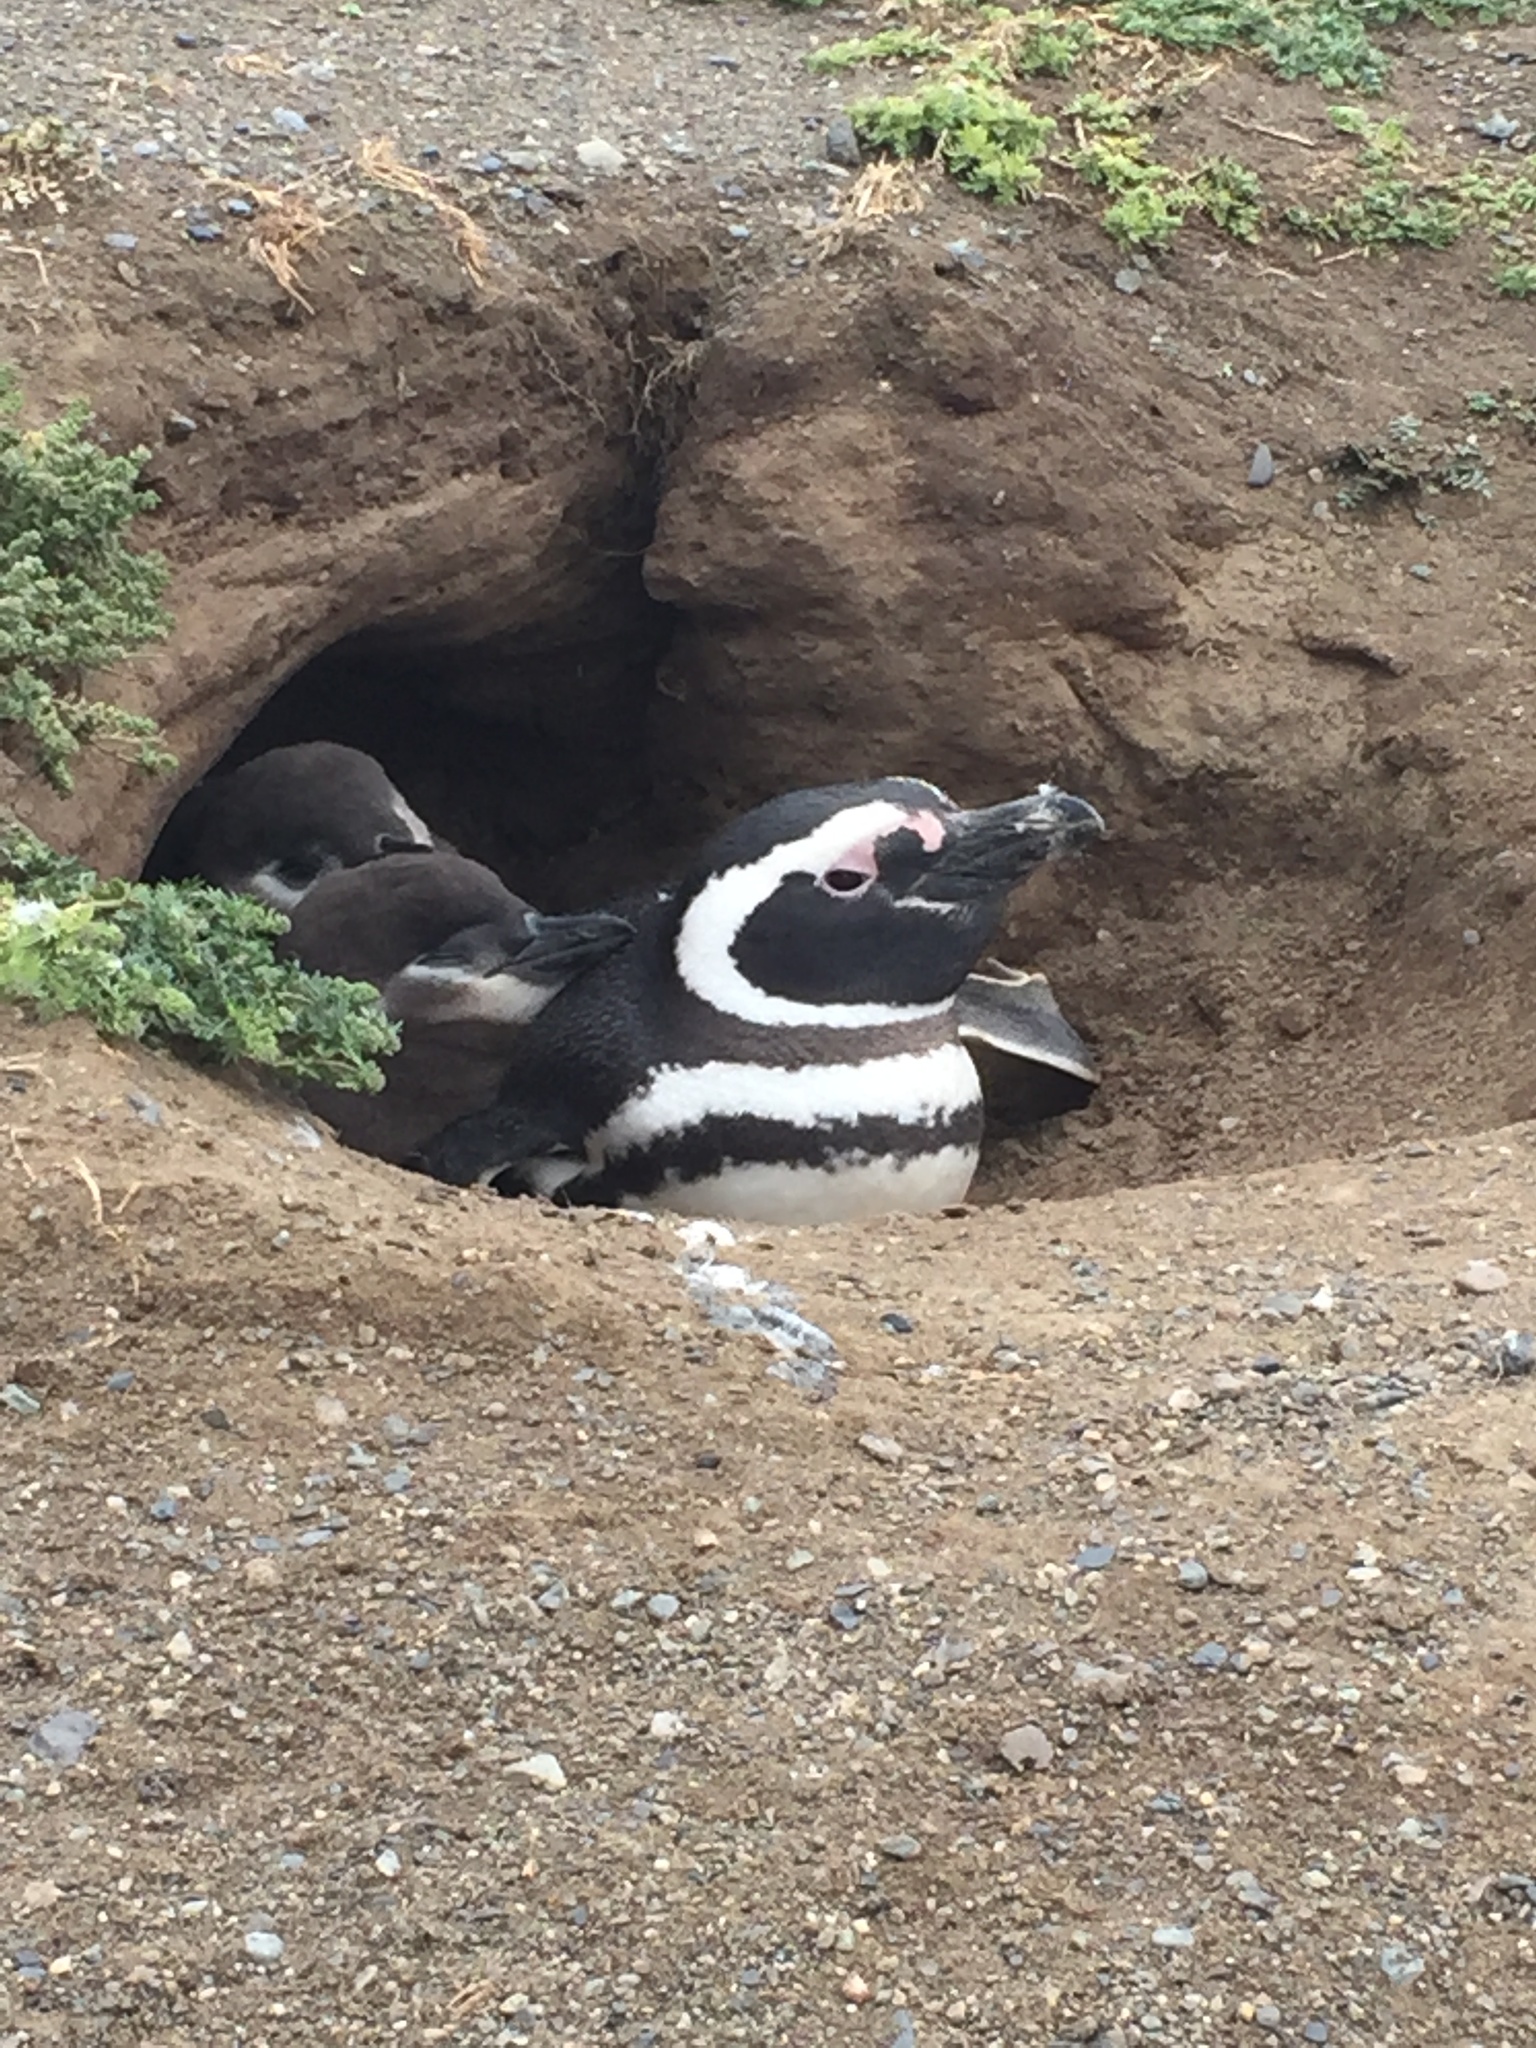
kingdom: Animalia
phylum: Chordata
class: Aves
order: Sphenisciformes
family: Spheniscidae
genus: Spheniscus
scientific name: Spheniscus magellanicus
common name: Magellanic penguin
